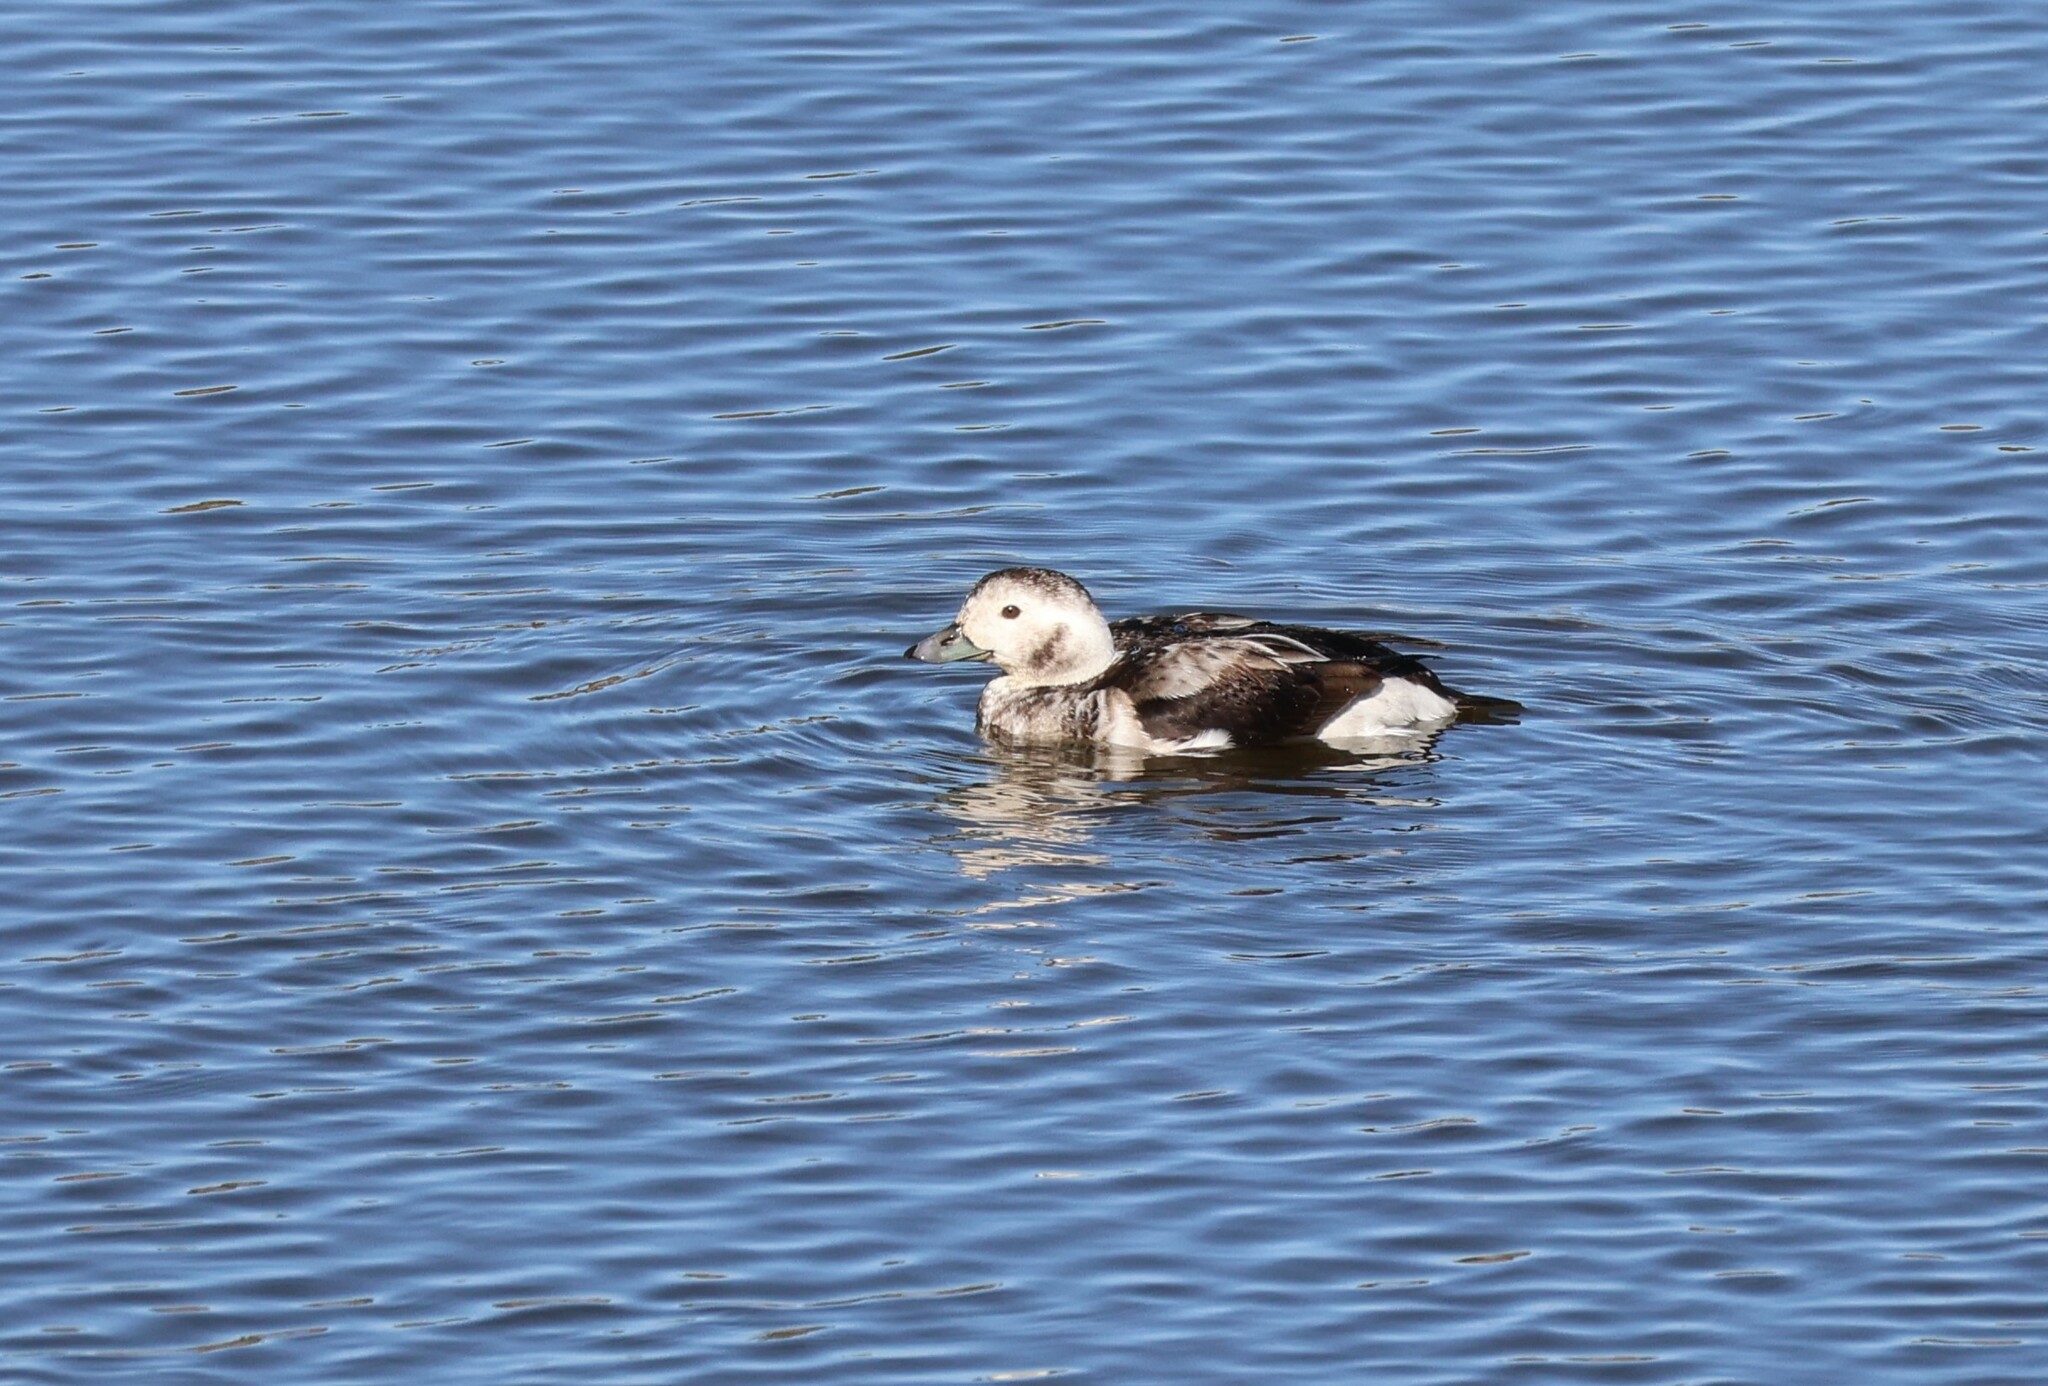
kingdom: Animalia
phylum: Chordata
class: Aves
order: Anseriformes
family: Anatidae
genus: Clangula
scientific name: Clangula hyemalis
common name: Long-tailed duck
